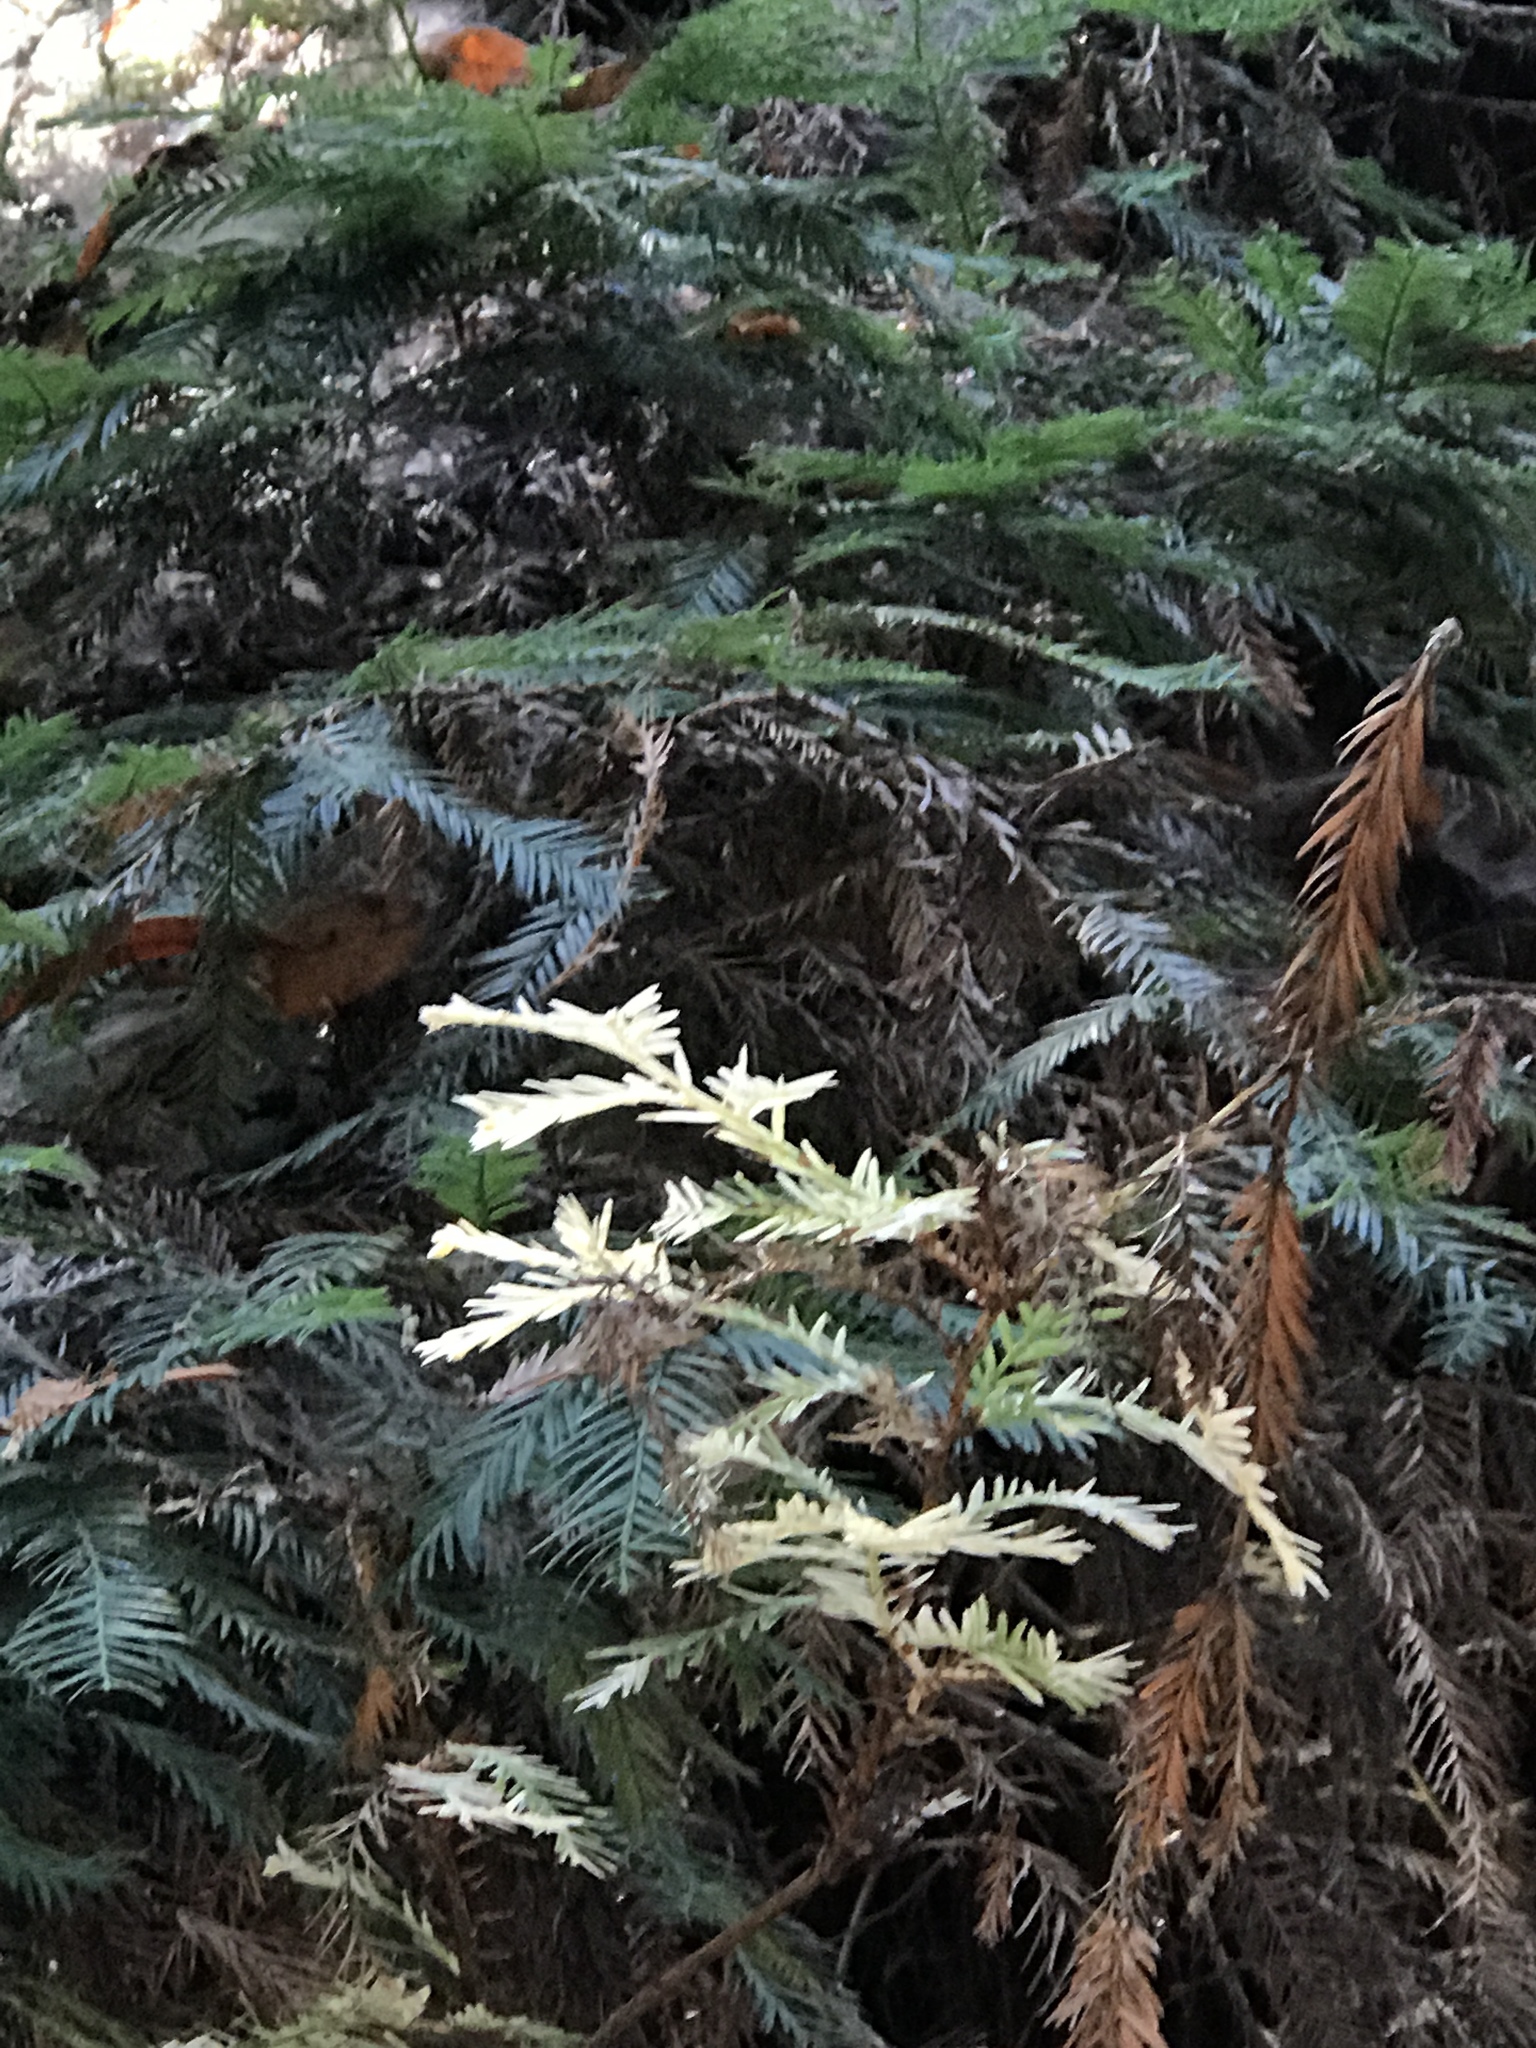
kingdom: Plantae
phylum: Tracheophyta
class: Pinopsida
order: Pinales
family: Cupressaceae
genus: Sequoia
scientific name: Sequoia sempervirens
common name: Coast redwood
